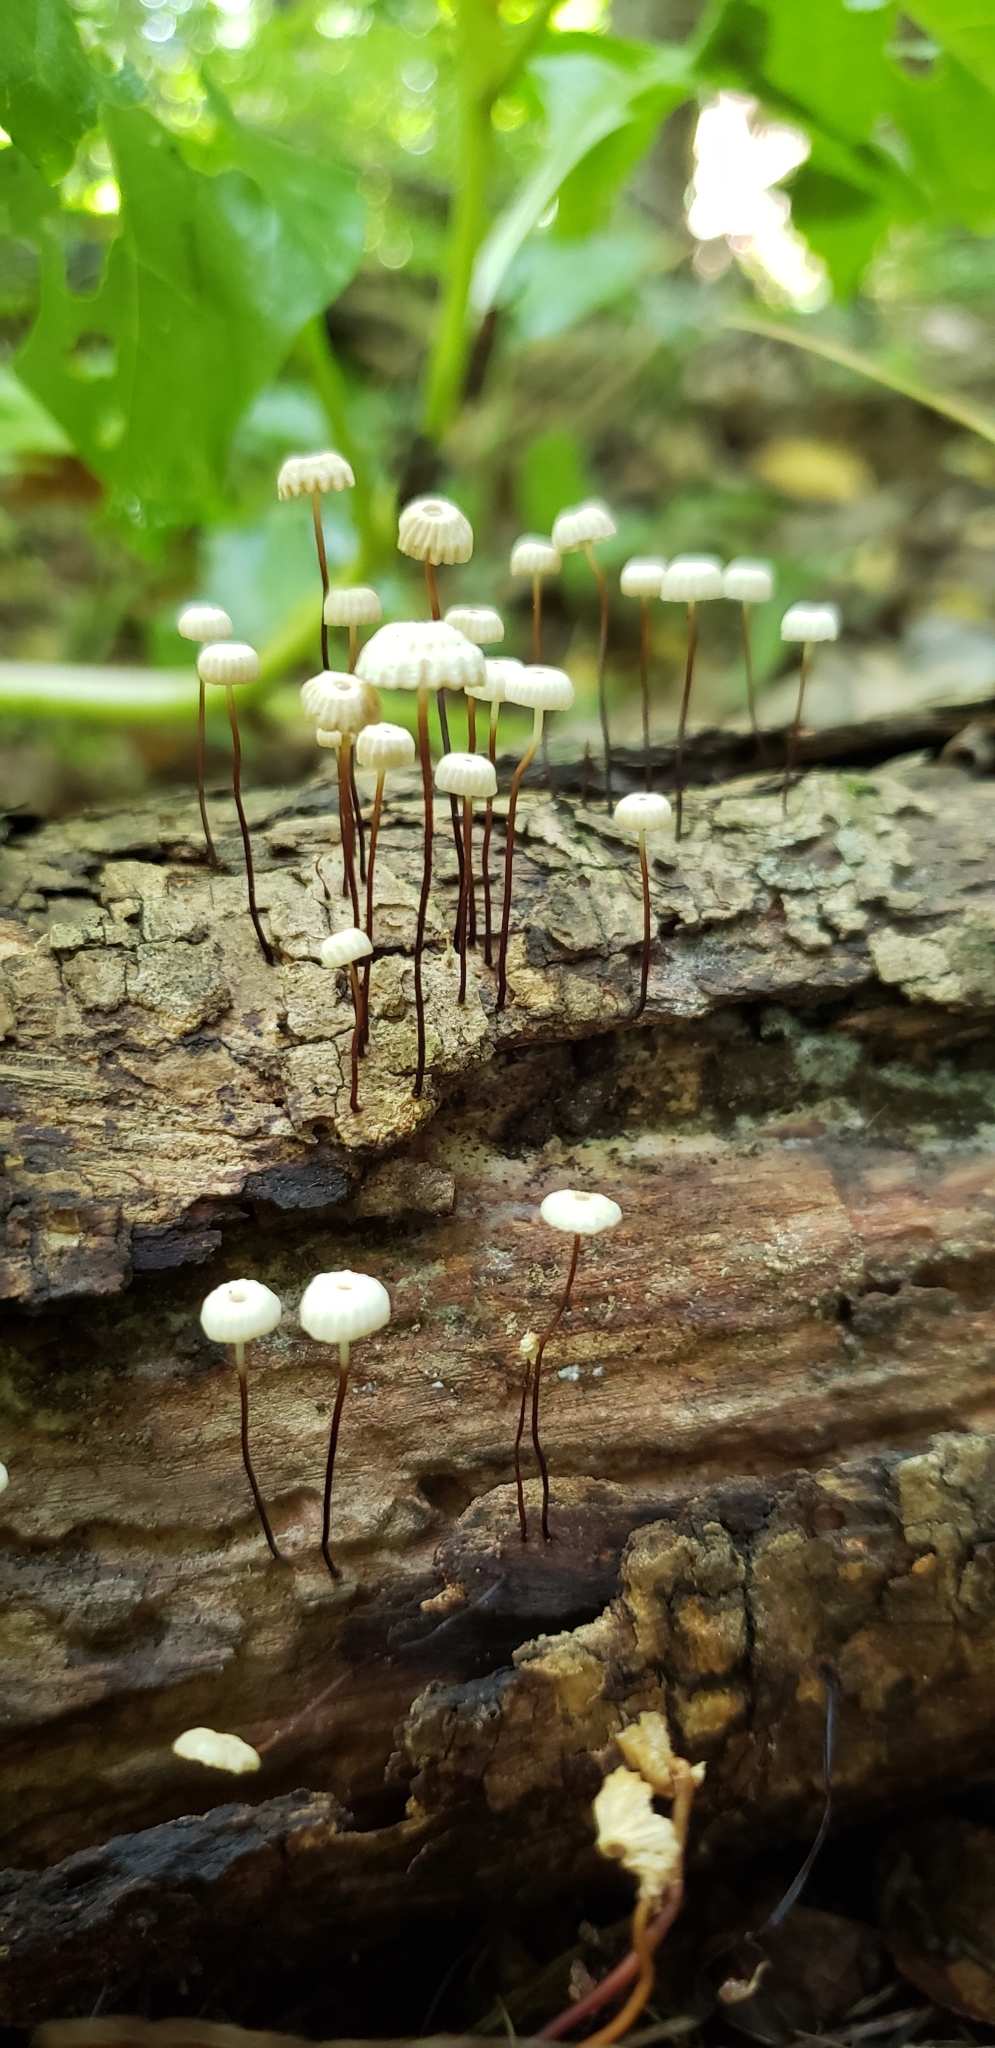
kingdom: Fungi
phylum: Basidiomycota
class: Agaricomycetes
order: Agaricales
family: Marasmiaceae
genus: Marasmius
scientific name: Marasmius rotula
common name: Collared parachute
